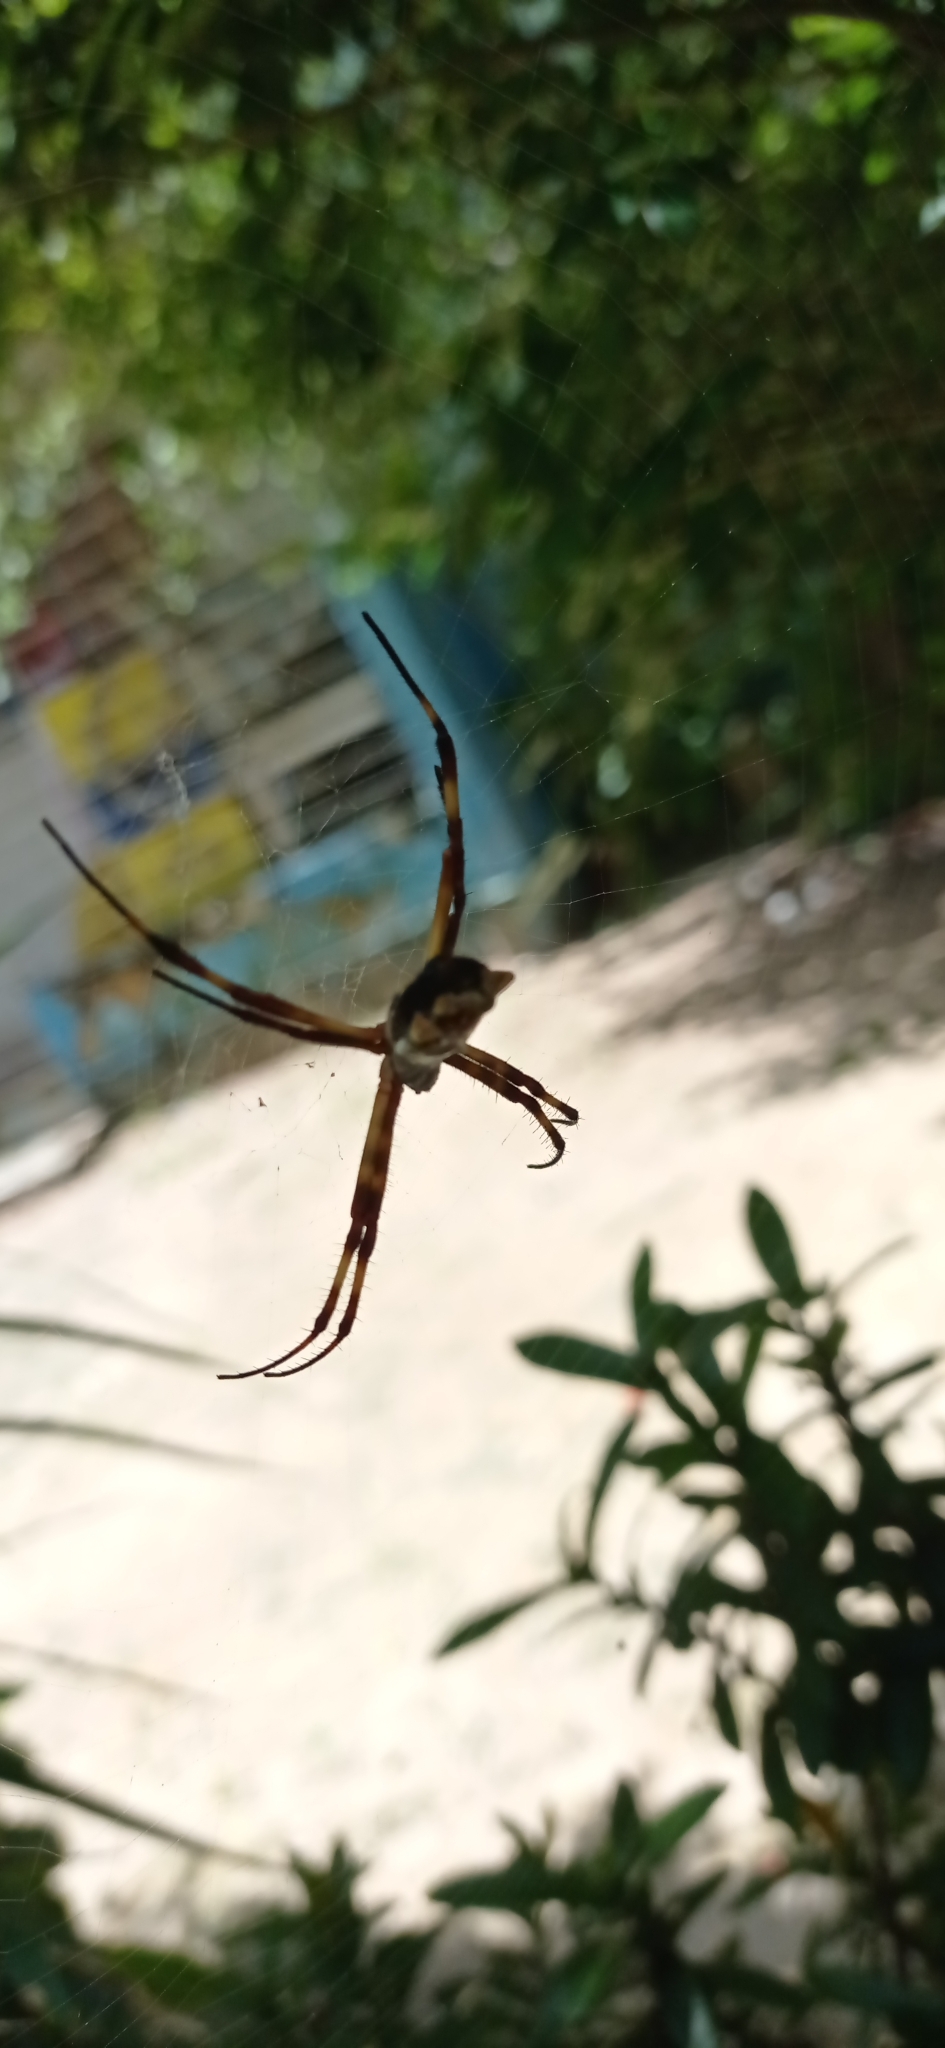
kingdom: Animalia
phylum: Arthropoda
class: Arachnida
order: Araneae
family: Araneidae
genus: Argiope
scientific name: Argiope argentata
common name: Orb weavers
